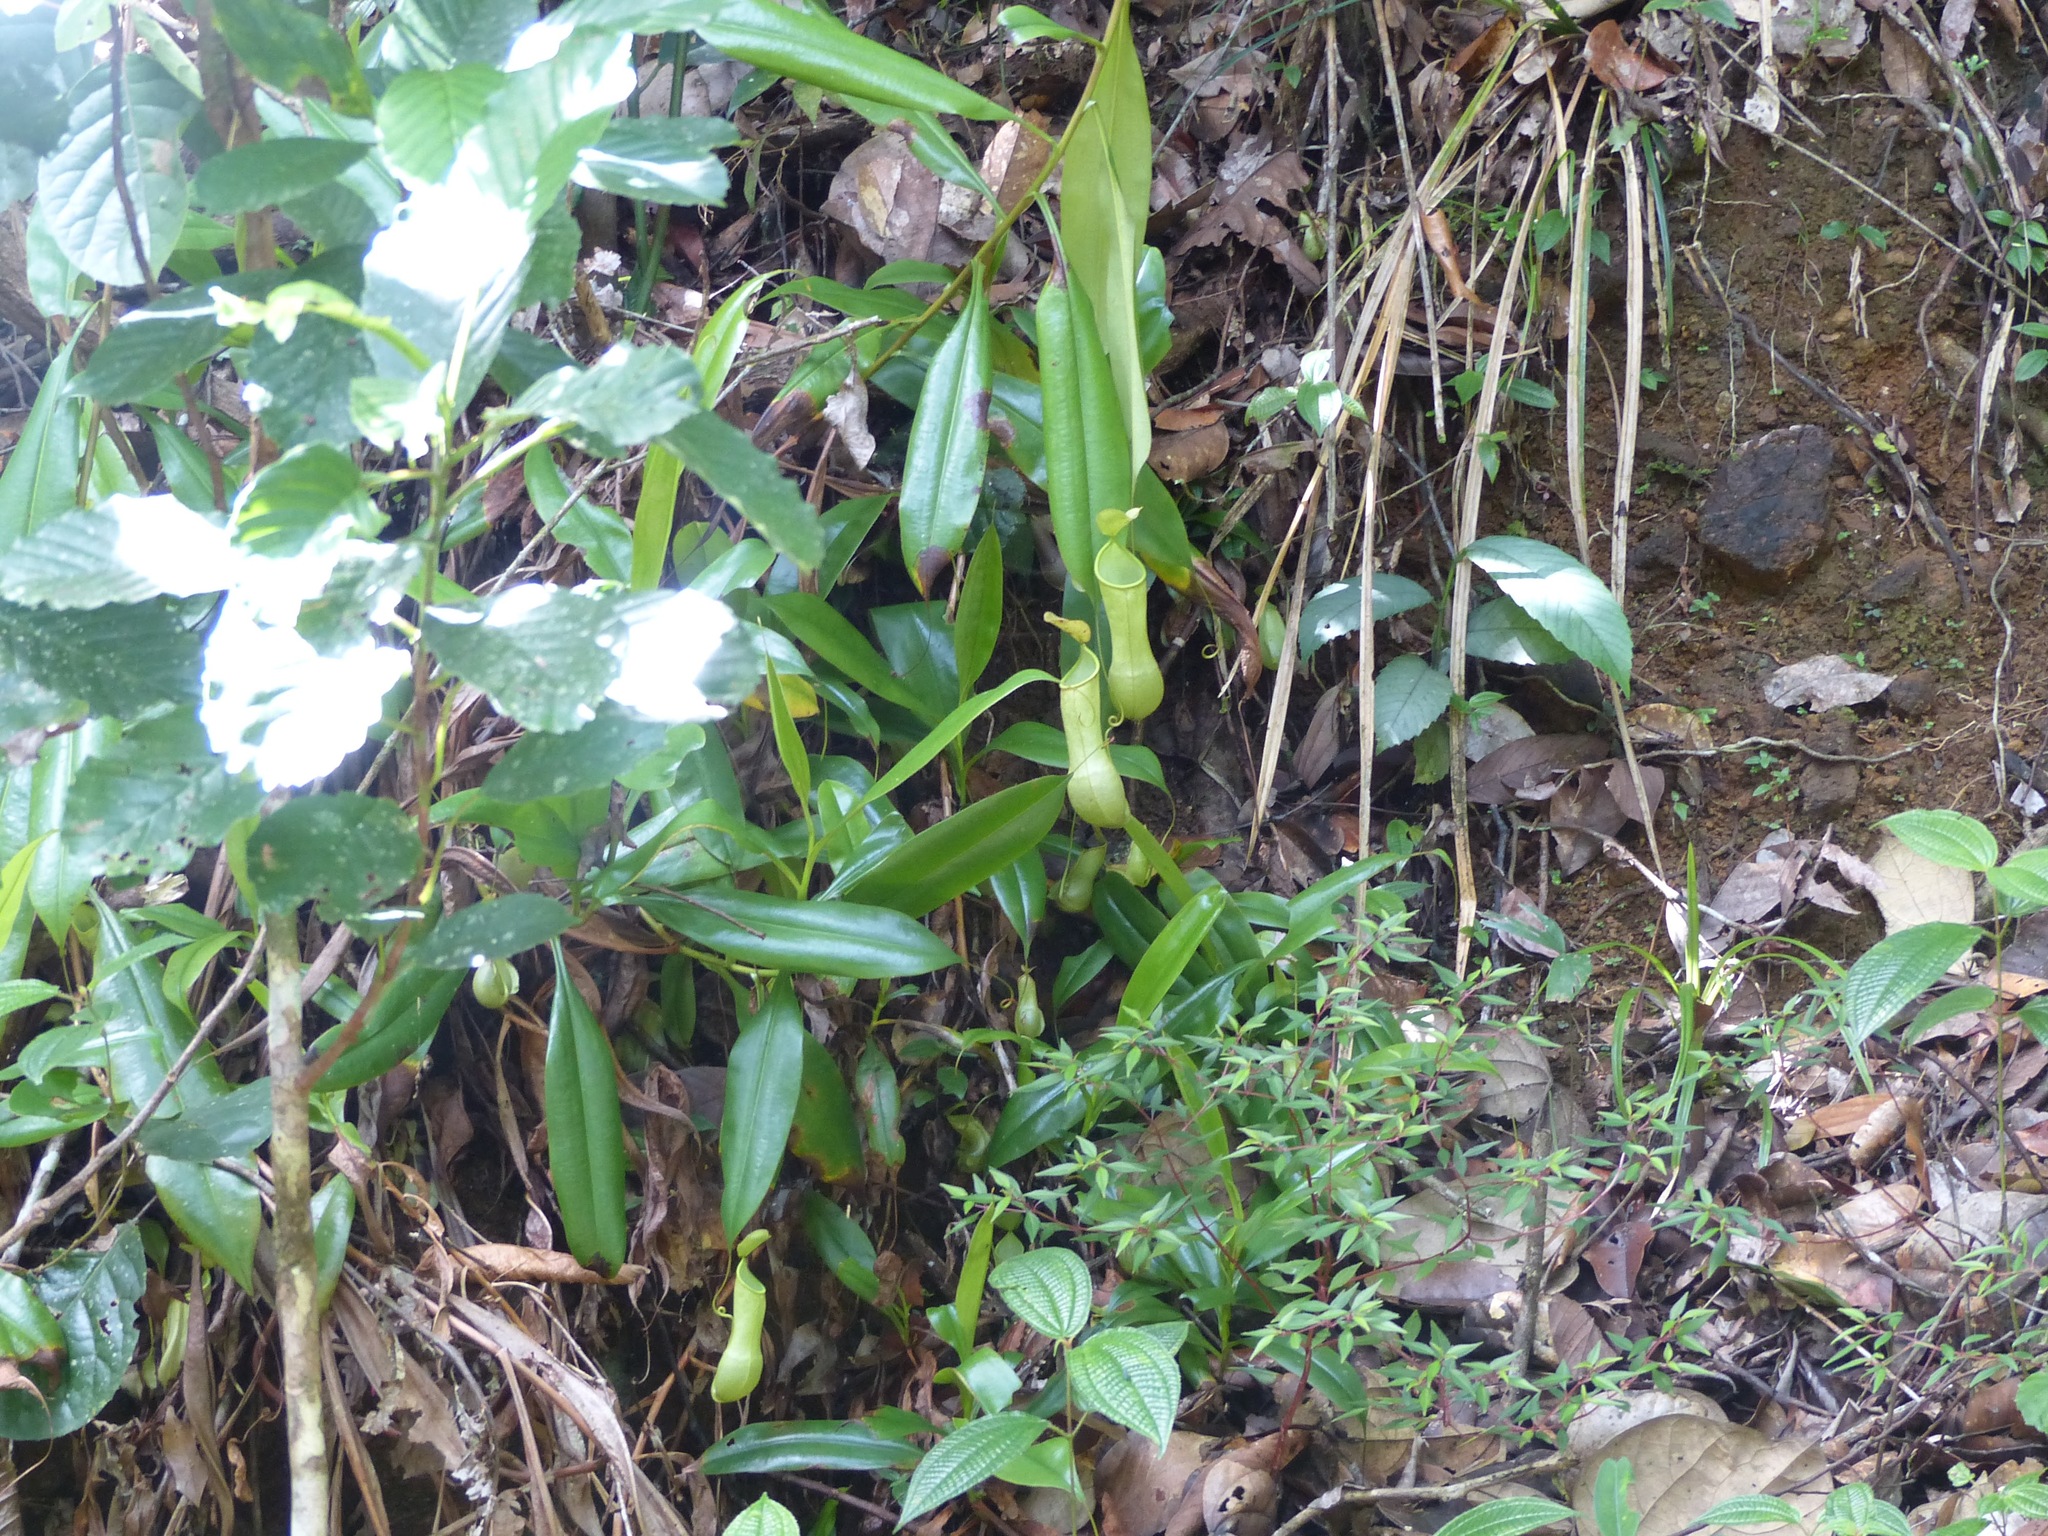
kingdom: Plantae
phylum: Tracheophyta
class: Magnoliopsida
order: Caryophyllales
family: Nepenthaceae
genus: Nepenthes
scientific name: Nepenthes distillatoria
